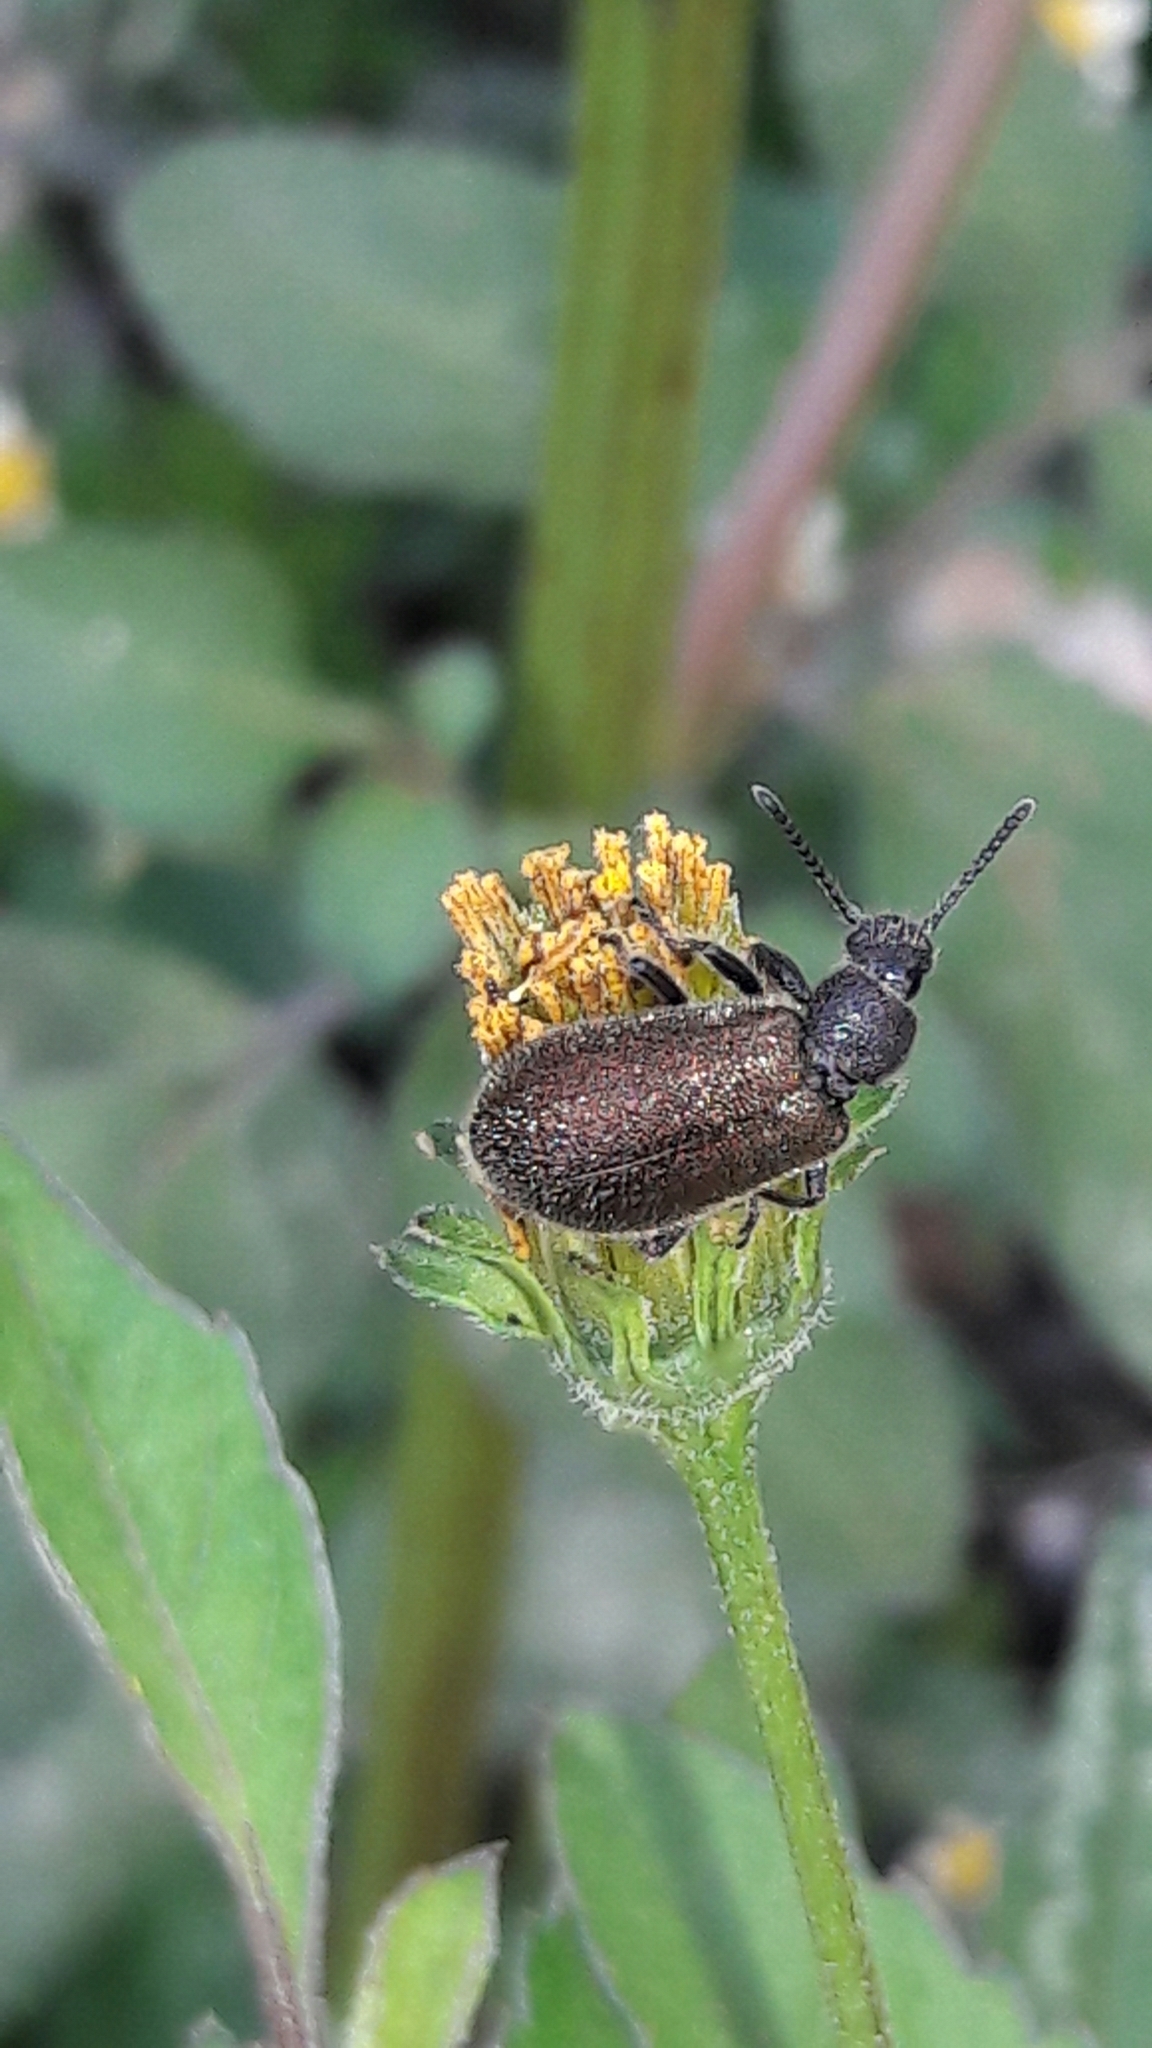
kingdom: Animalia
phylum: Arthropoda
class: Insecta
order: Coleoptera
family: Tenebrionidae
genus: Lagria
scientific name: Lagria villosa
